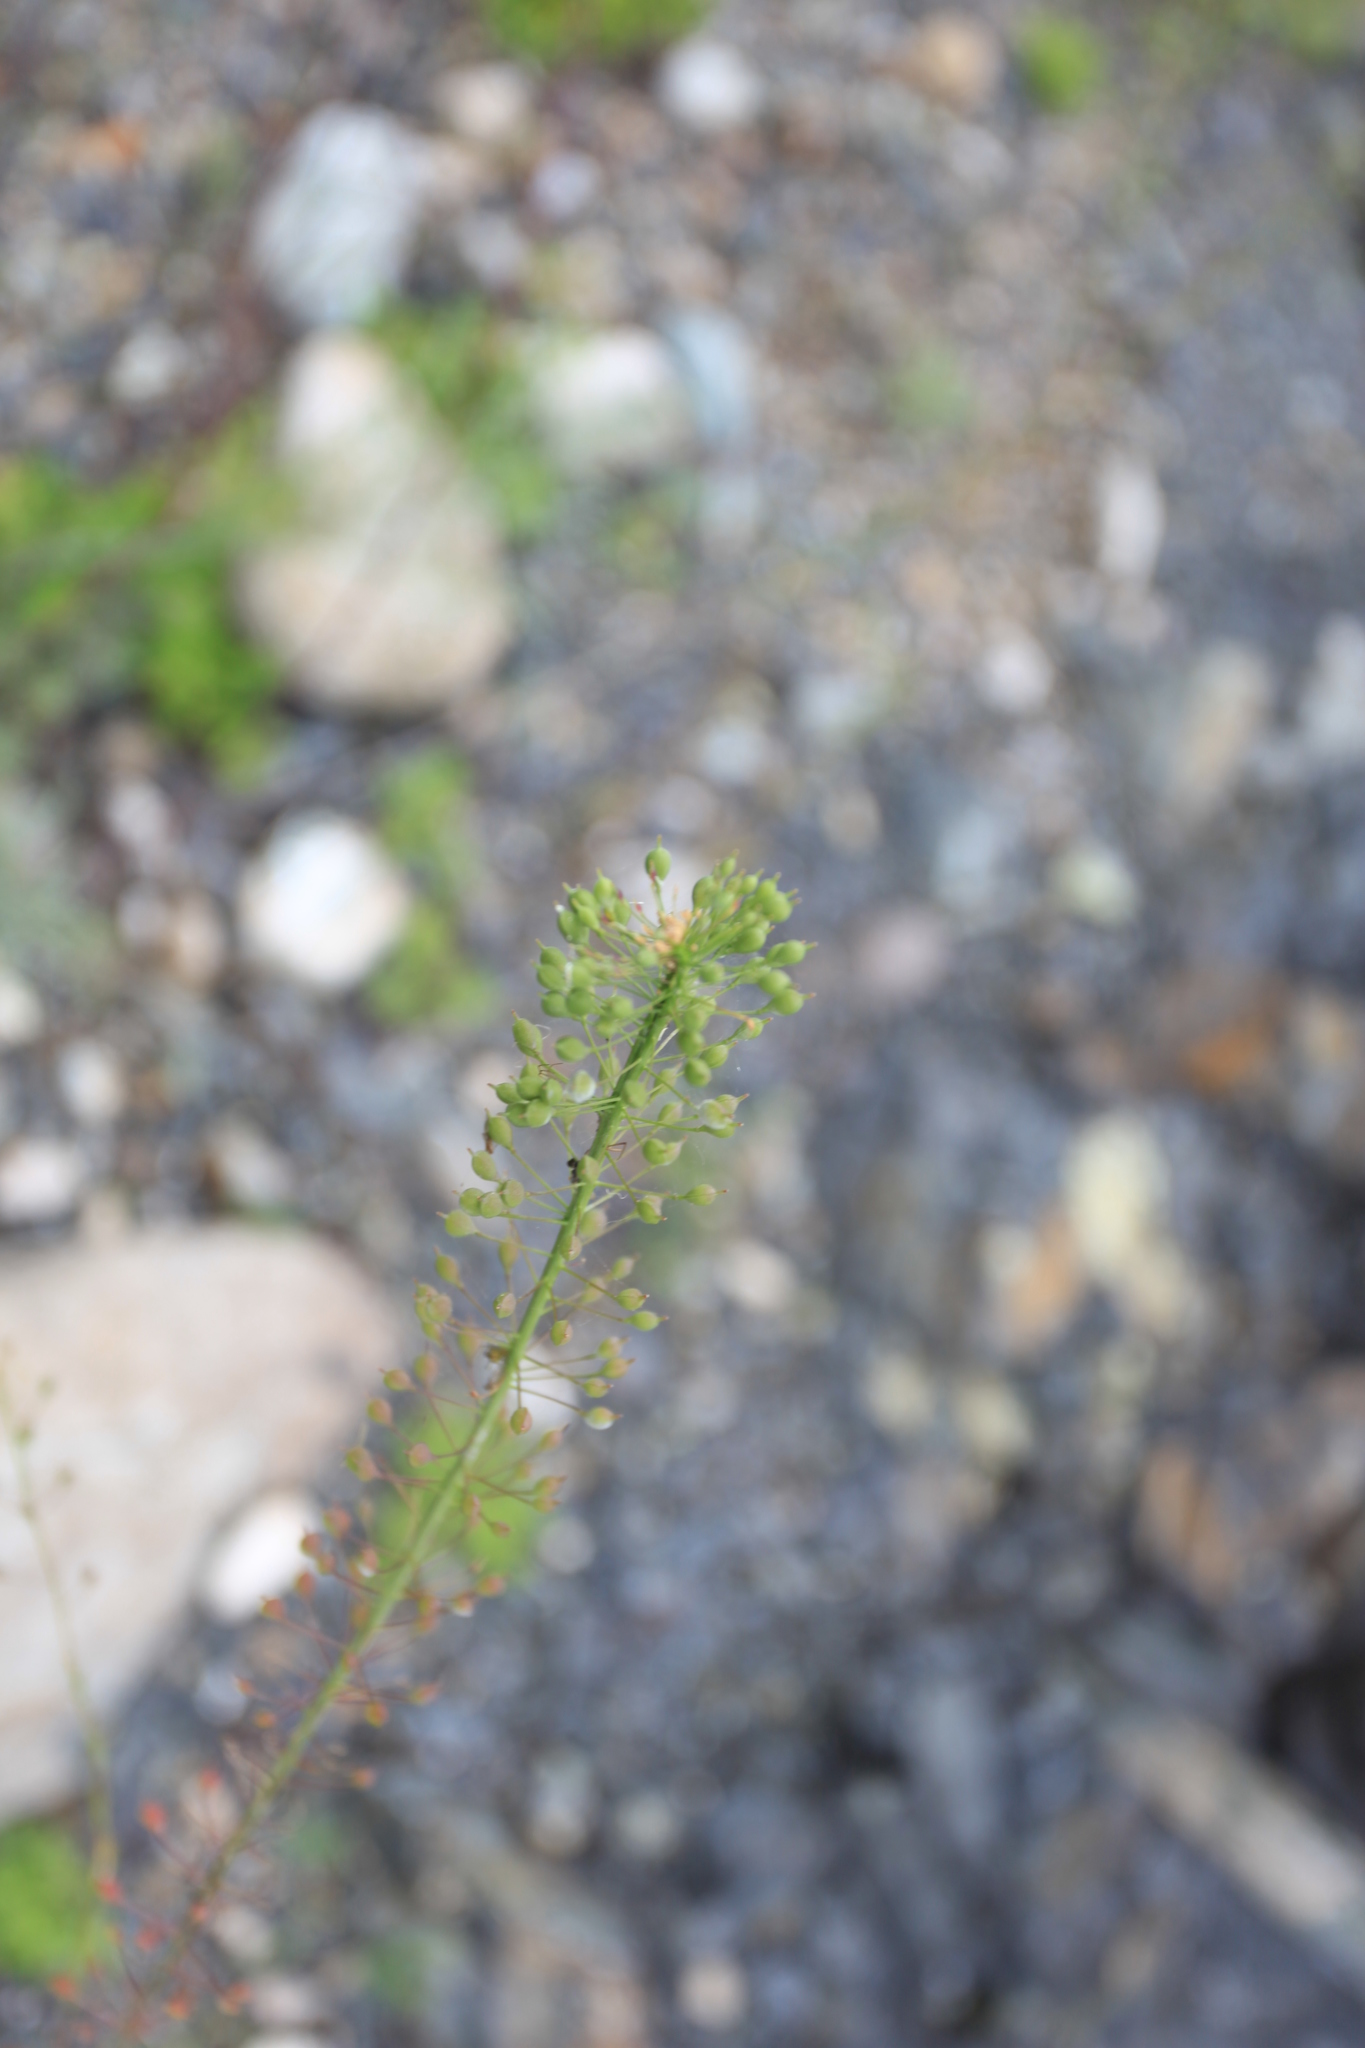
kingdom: Plantae
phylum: Tracheophyta
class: Magnoliopsida
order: Brassicales
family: Brassicaceae
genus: Camelina
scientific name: Camelina microcarpa
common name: Lesser gold-of-pleasure
